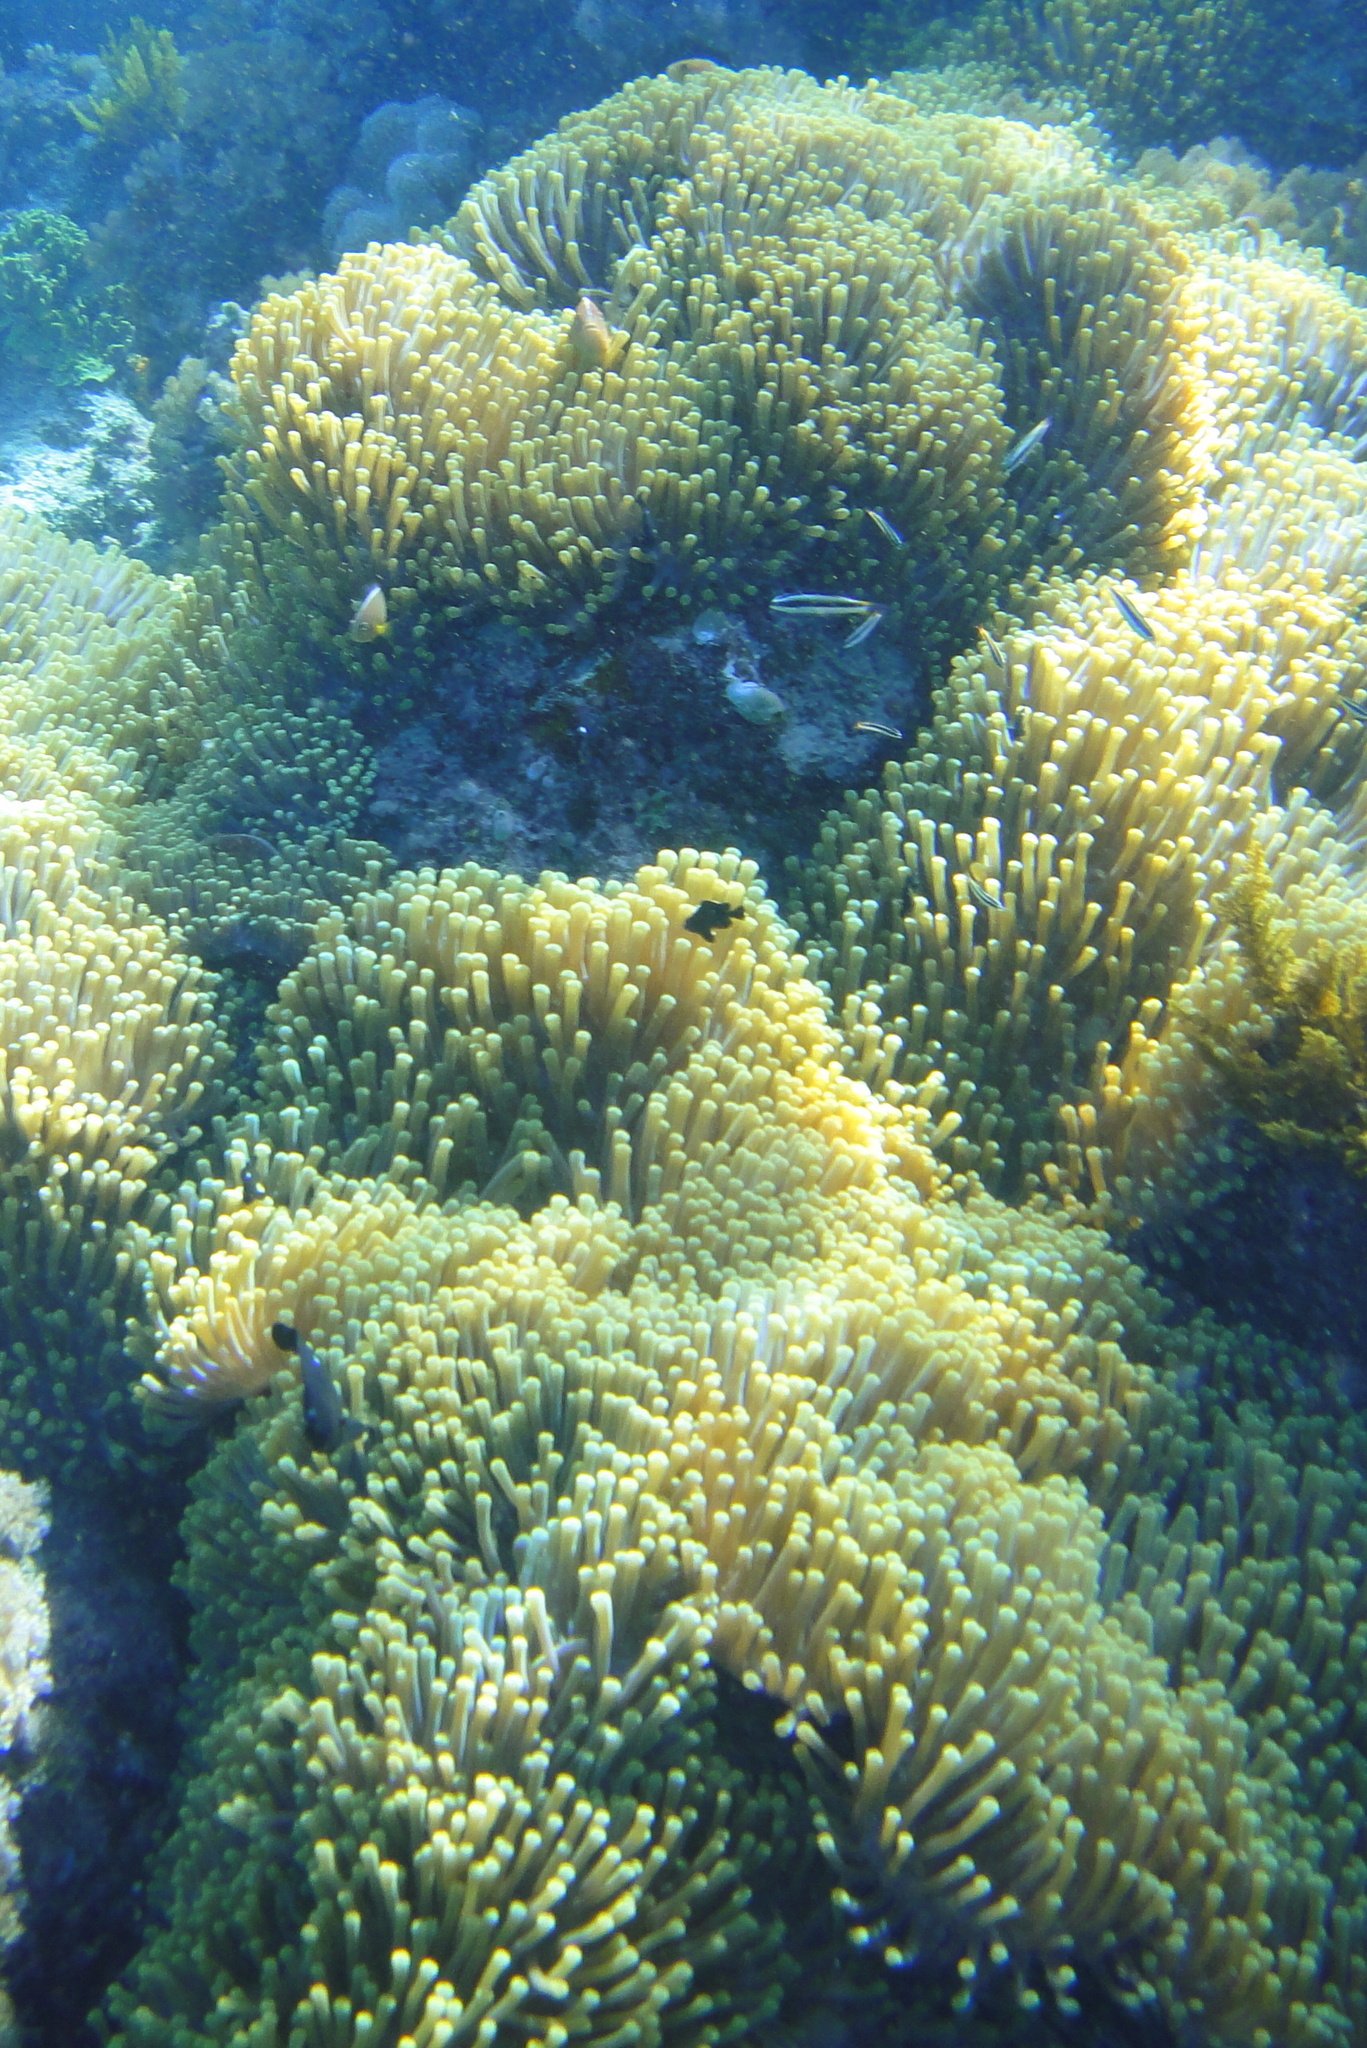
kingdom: Animalia
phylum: Cnidaria
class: Anthozoa
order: Actiniaria
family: Stichodactylidae
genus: Radianthus
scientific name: Radianthus magnifica
